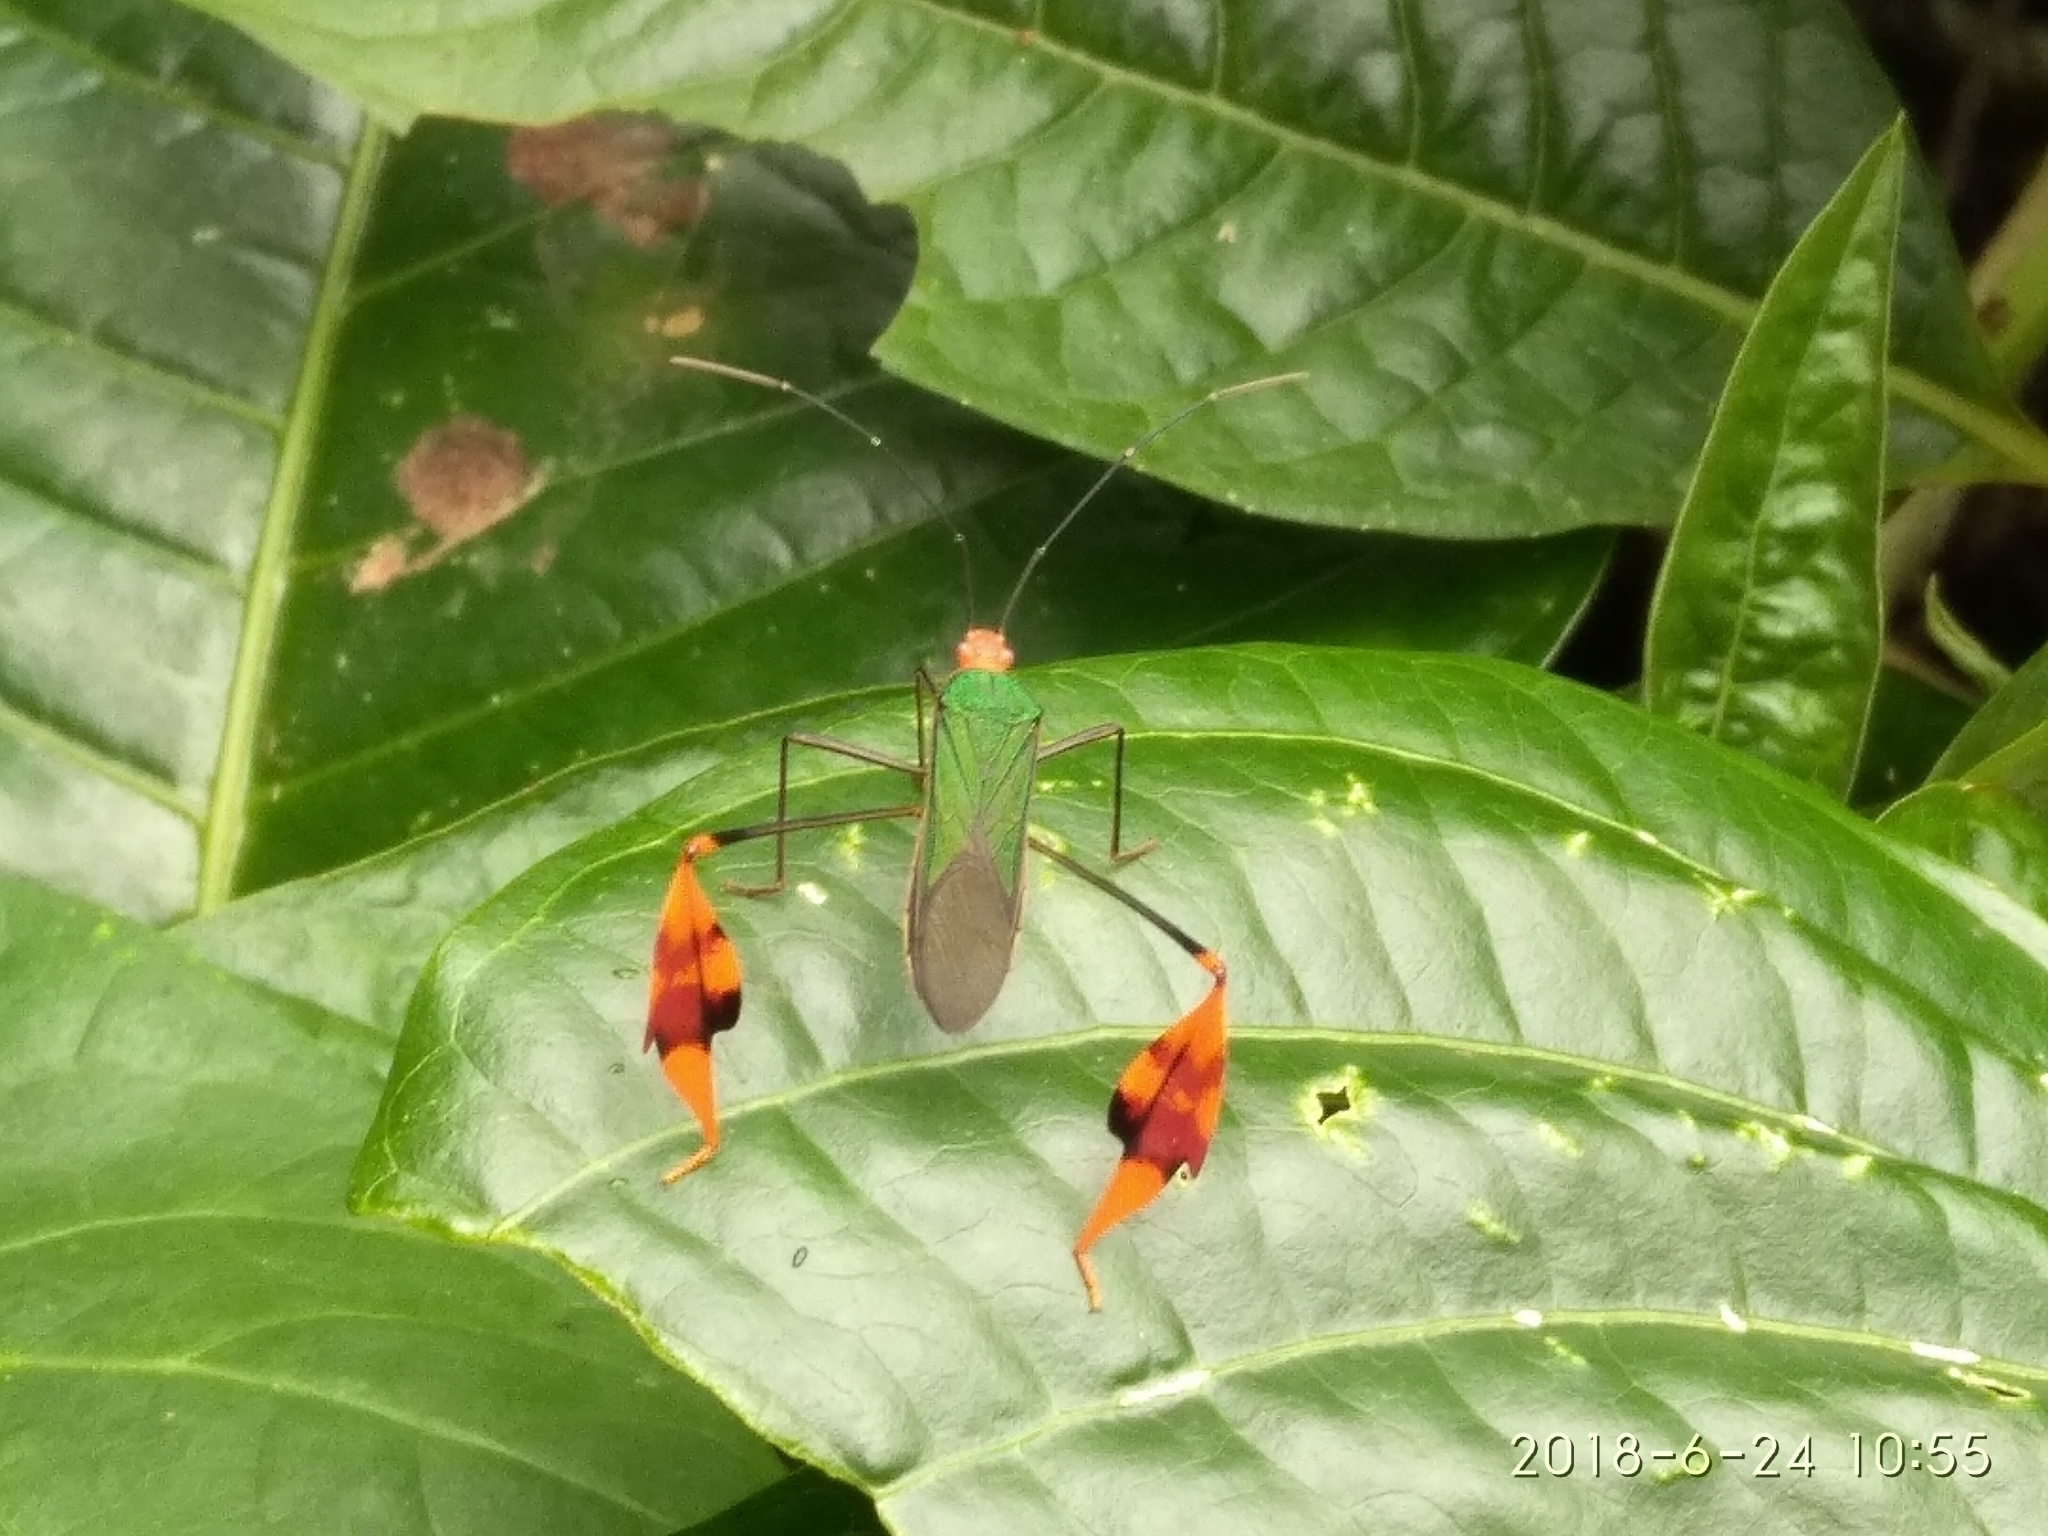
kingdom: Animalia
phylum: Arthropoda
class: Insecta
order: Hemiptera
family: Coreidae
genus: Anisoscelis
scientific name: Anisoscelis foliaceus
